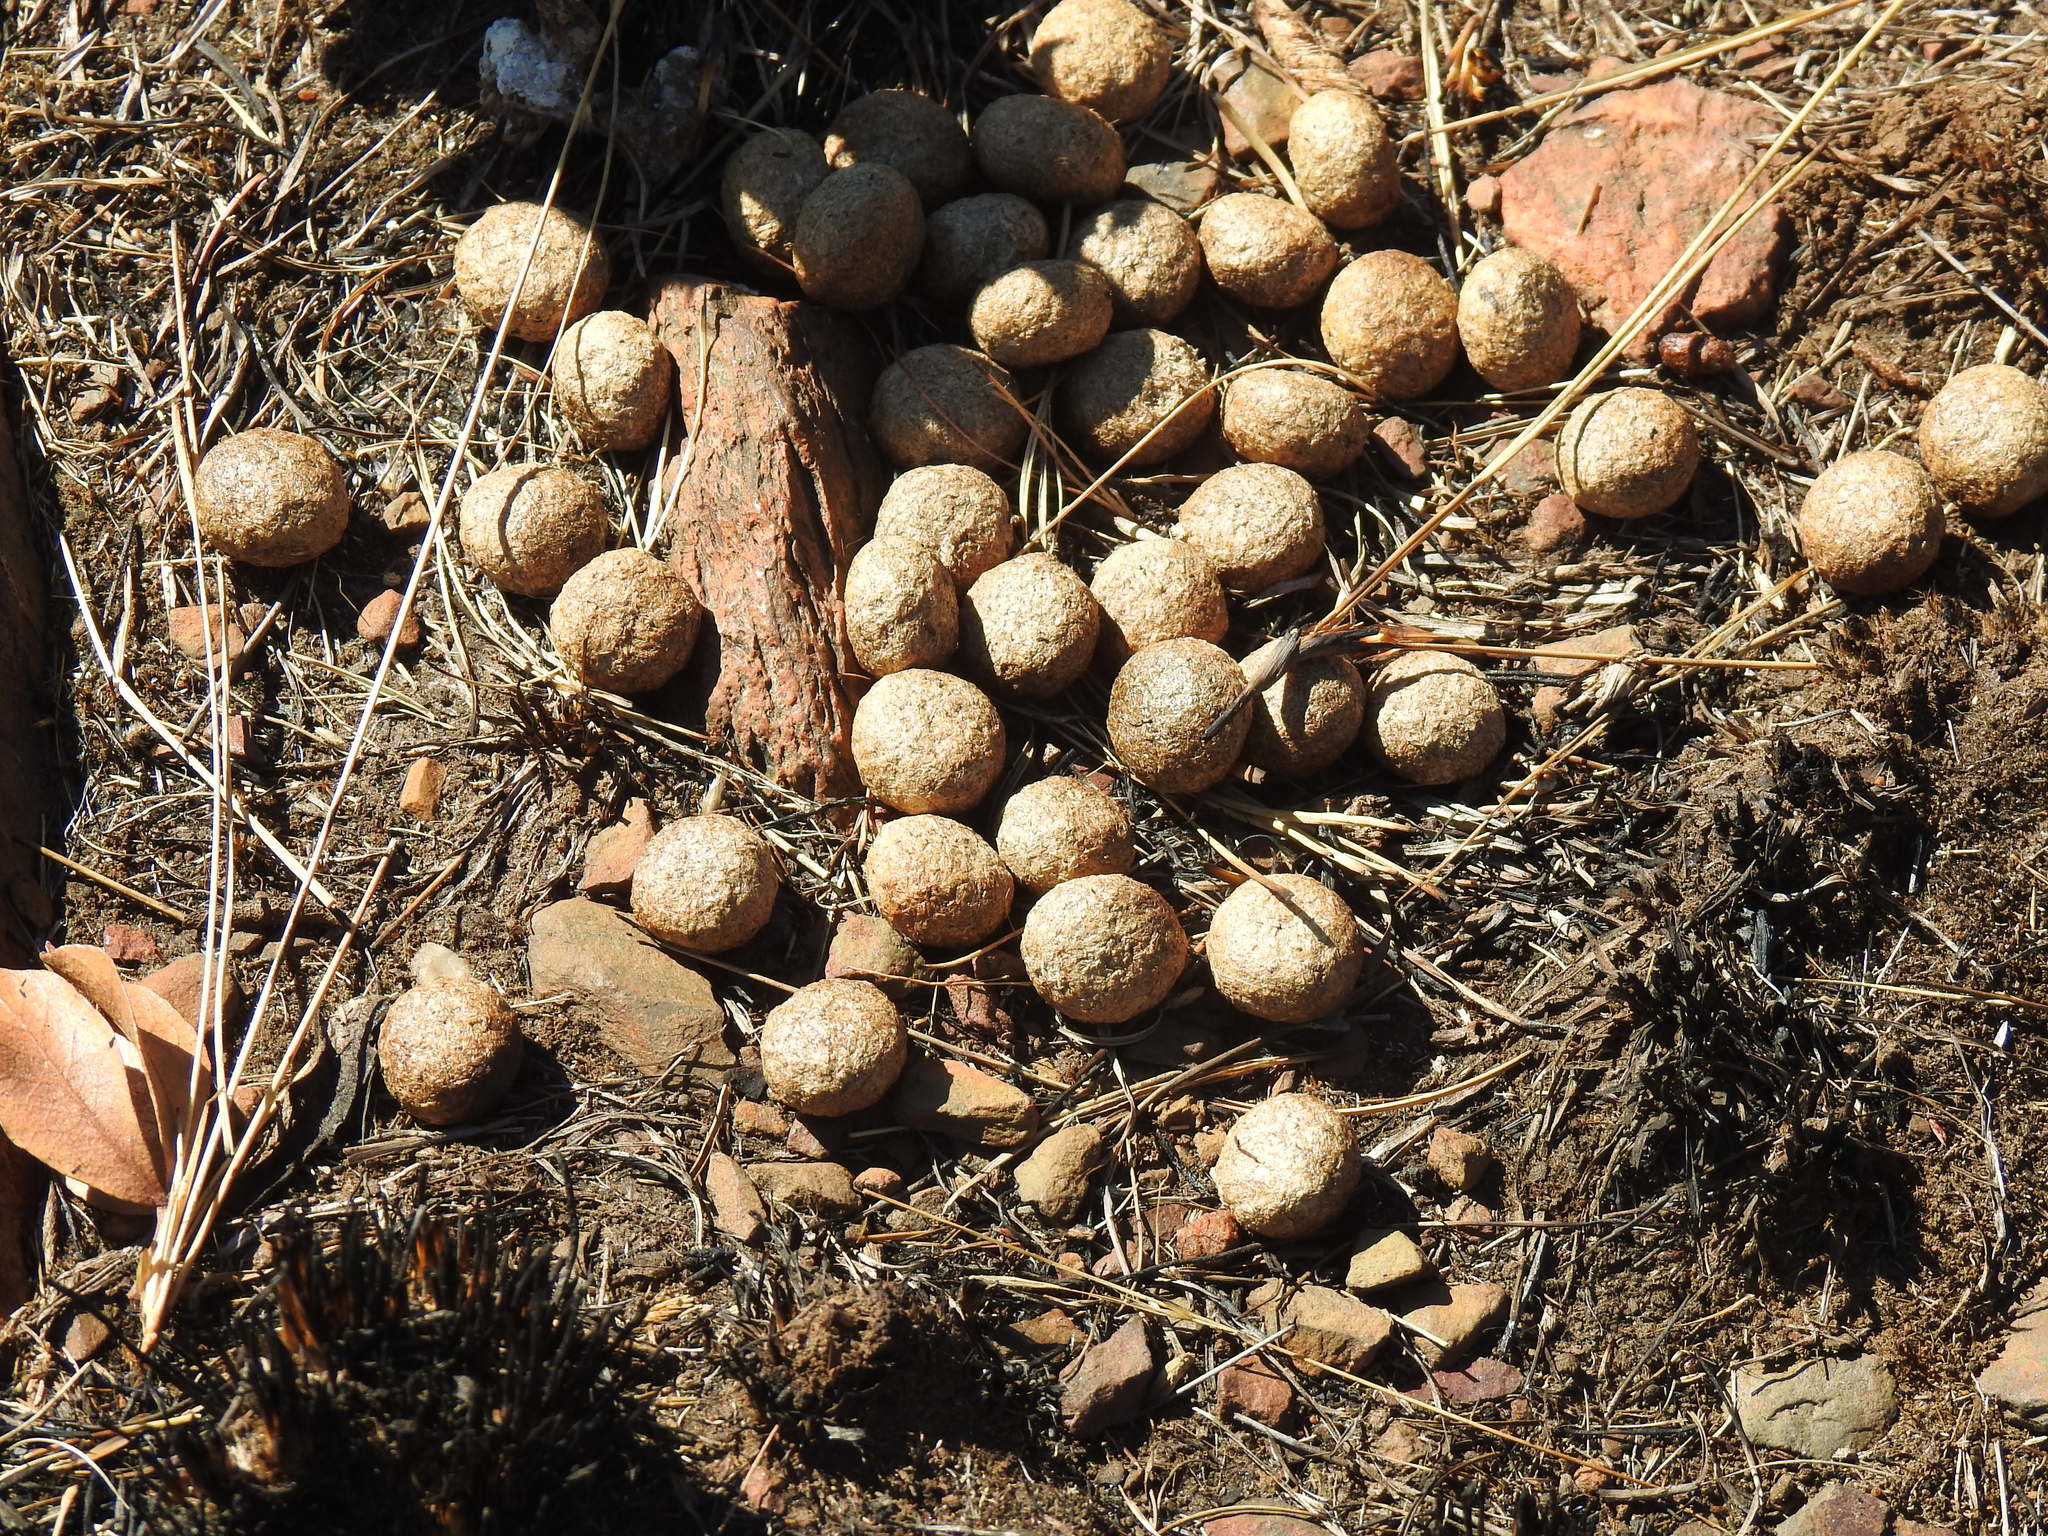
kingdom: Animalia
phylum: Chordata
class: Mammalia
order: Lagomorpha
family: Leporidae
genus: Pronolagus
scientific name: Pronolagus randensis
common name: Jameson's red rock hare
